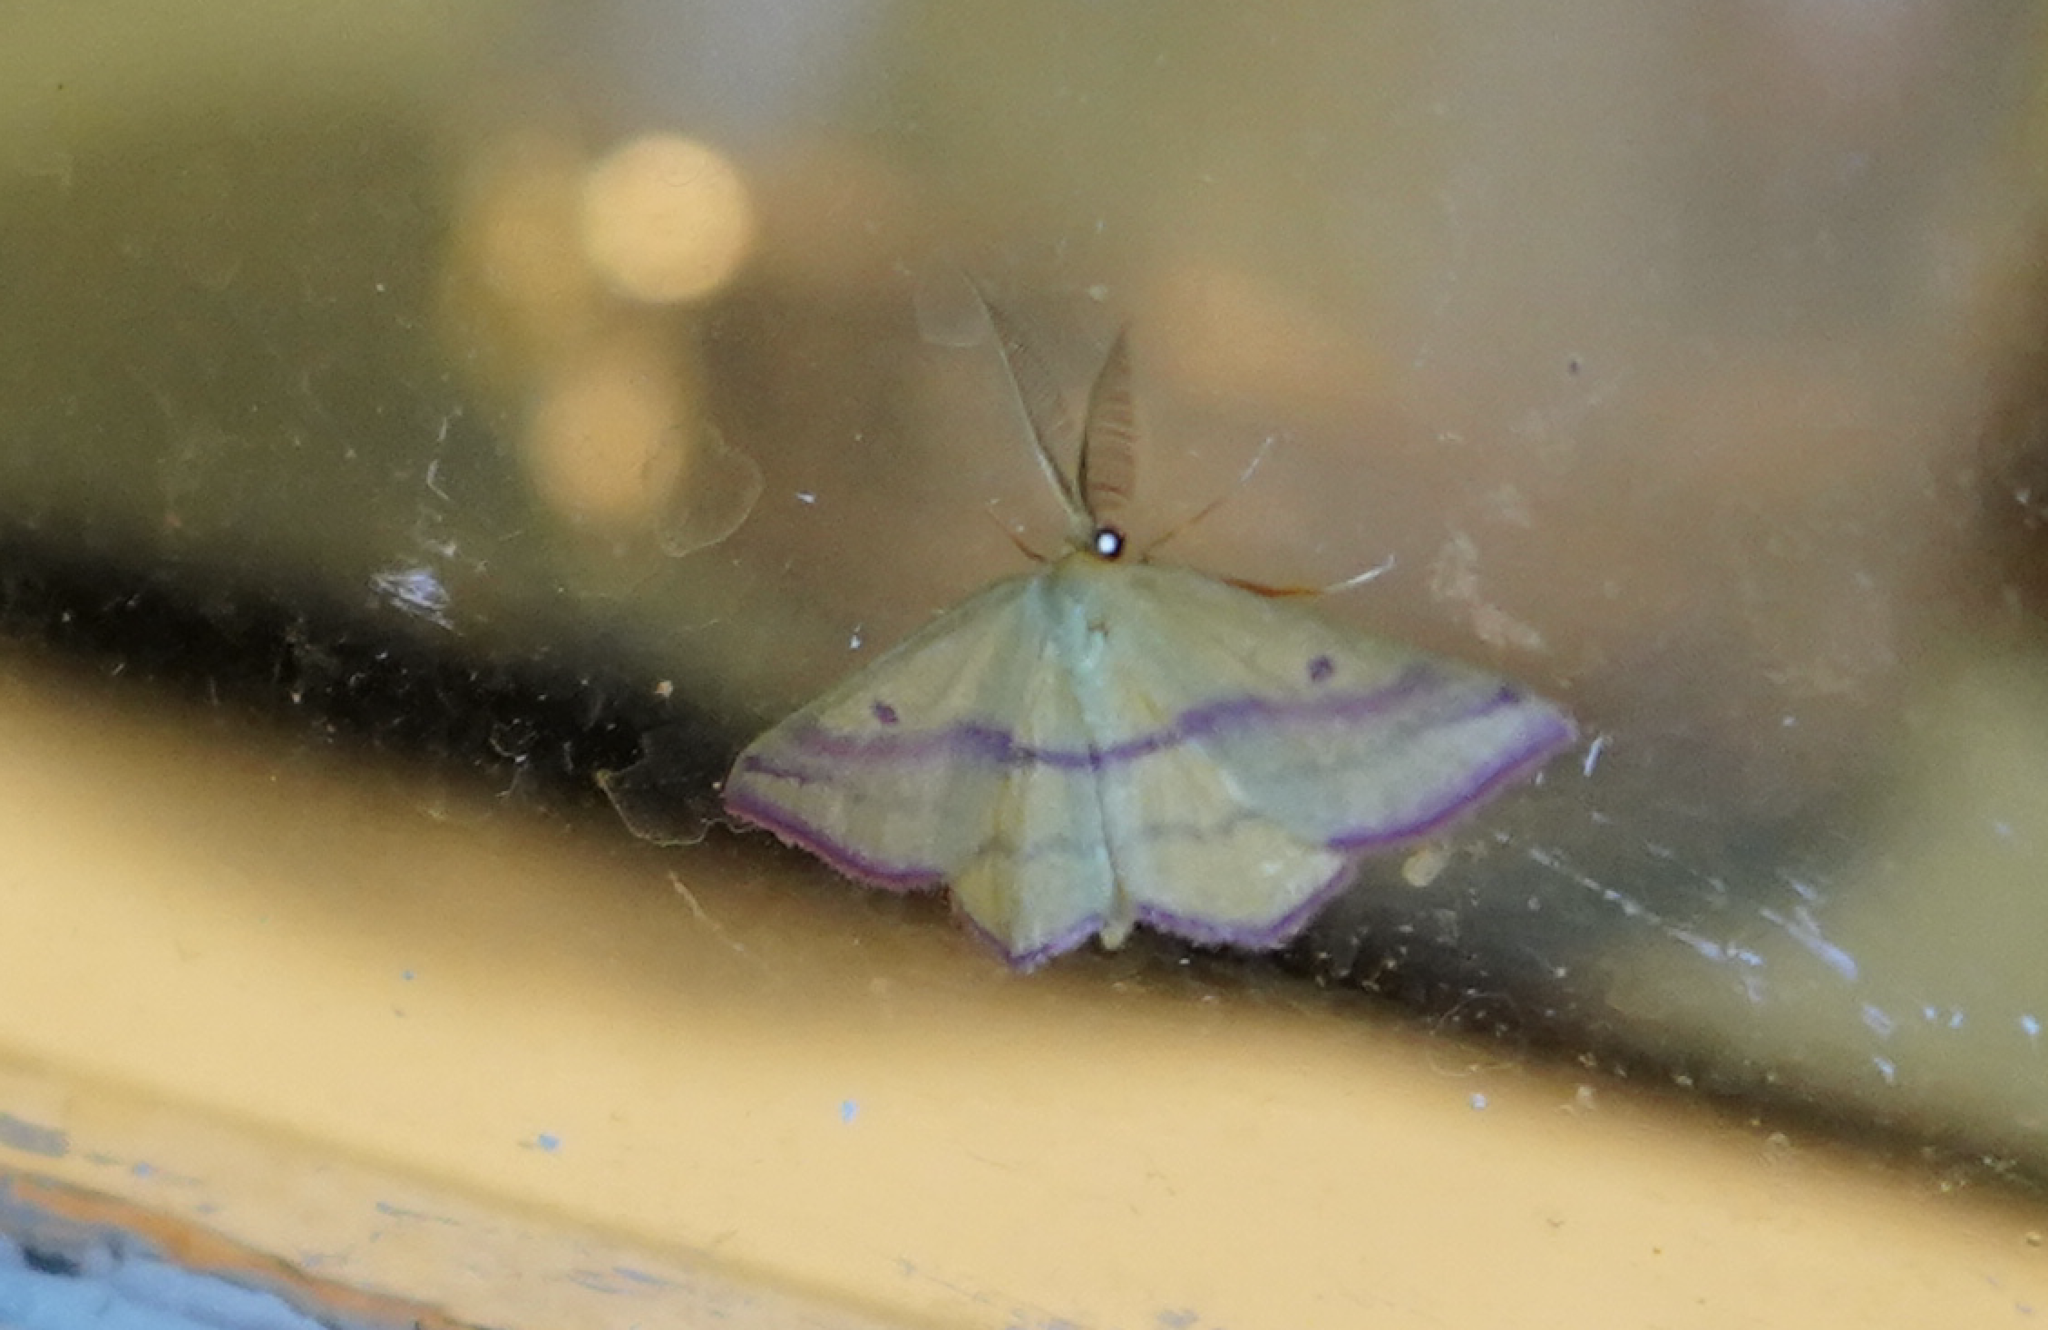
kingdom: Animalia
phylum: Arthropoda
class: Insecta
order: Lepidoptera
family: Geometridae
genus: Haematopis
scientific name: Haematopis grataria
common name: Chickweed geometer
